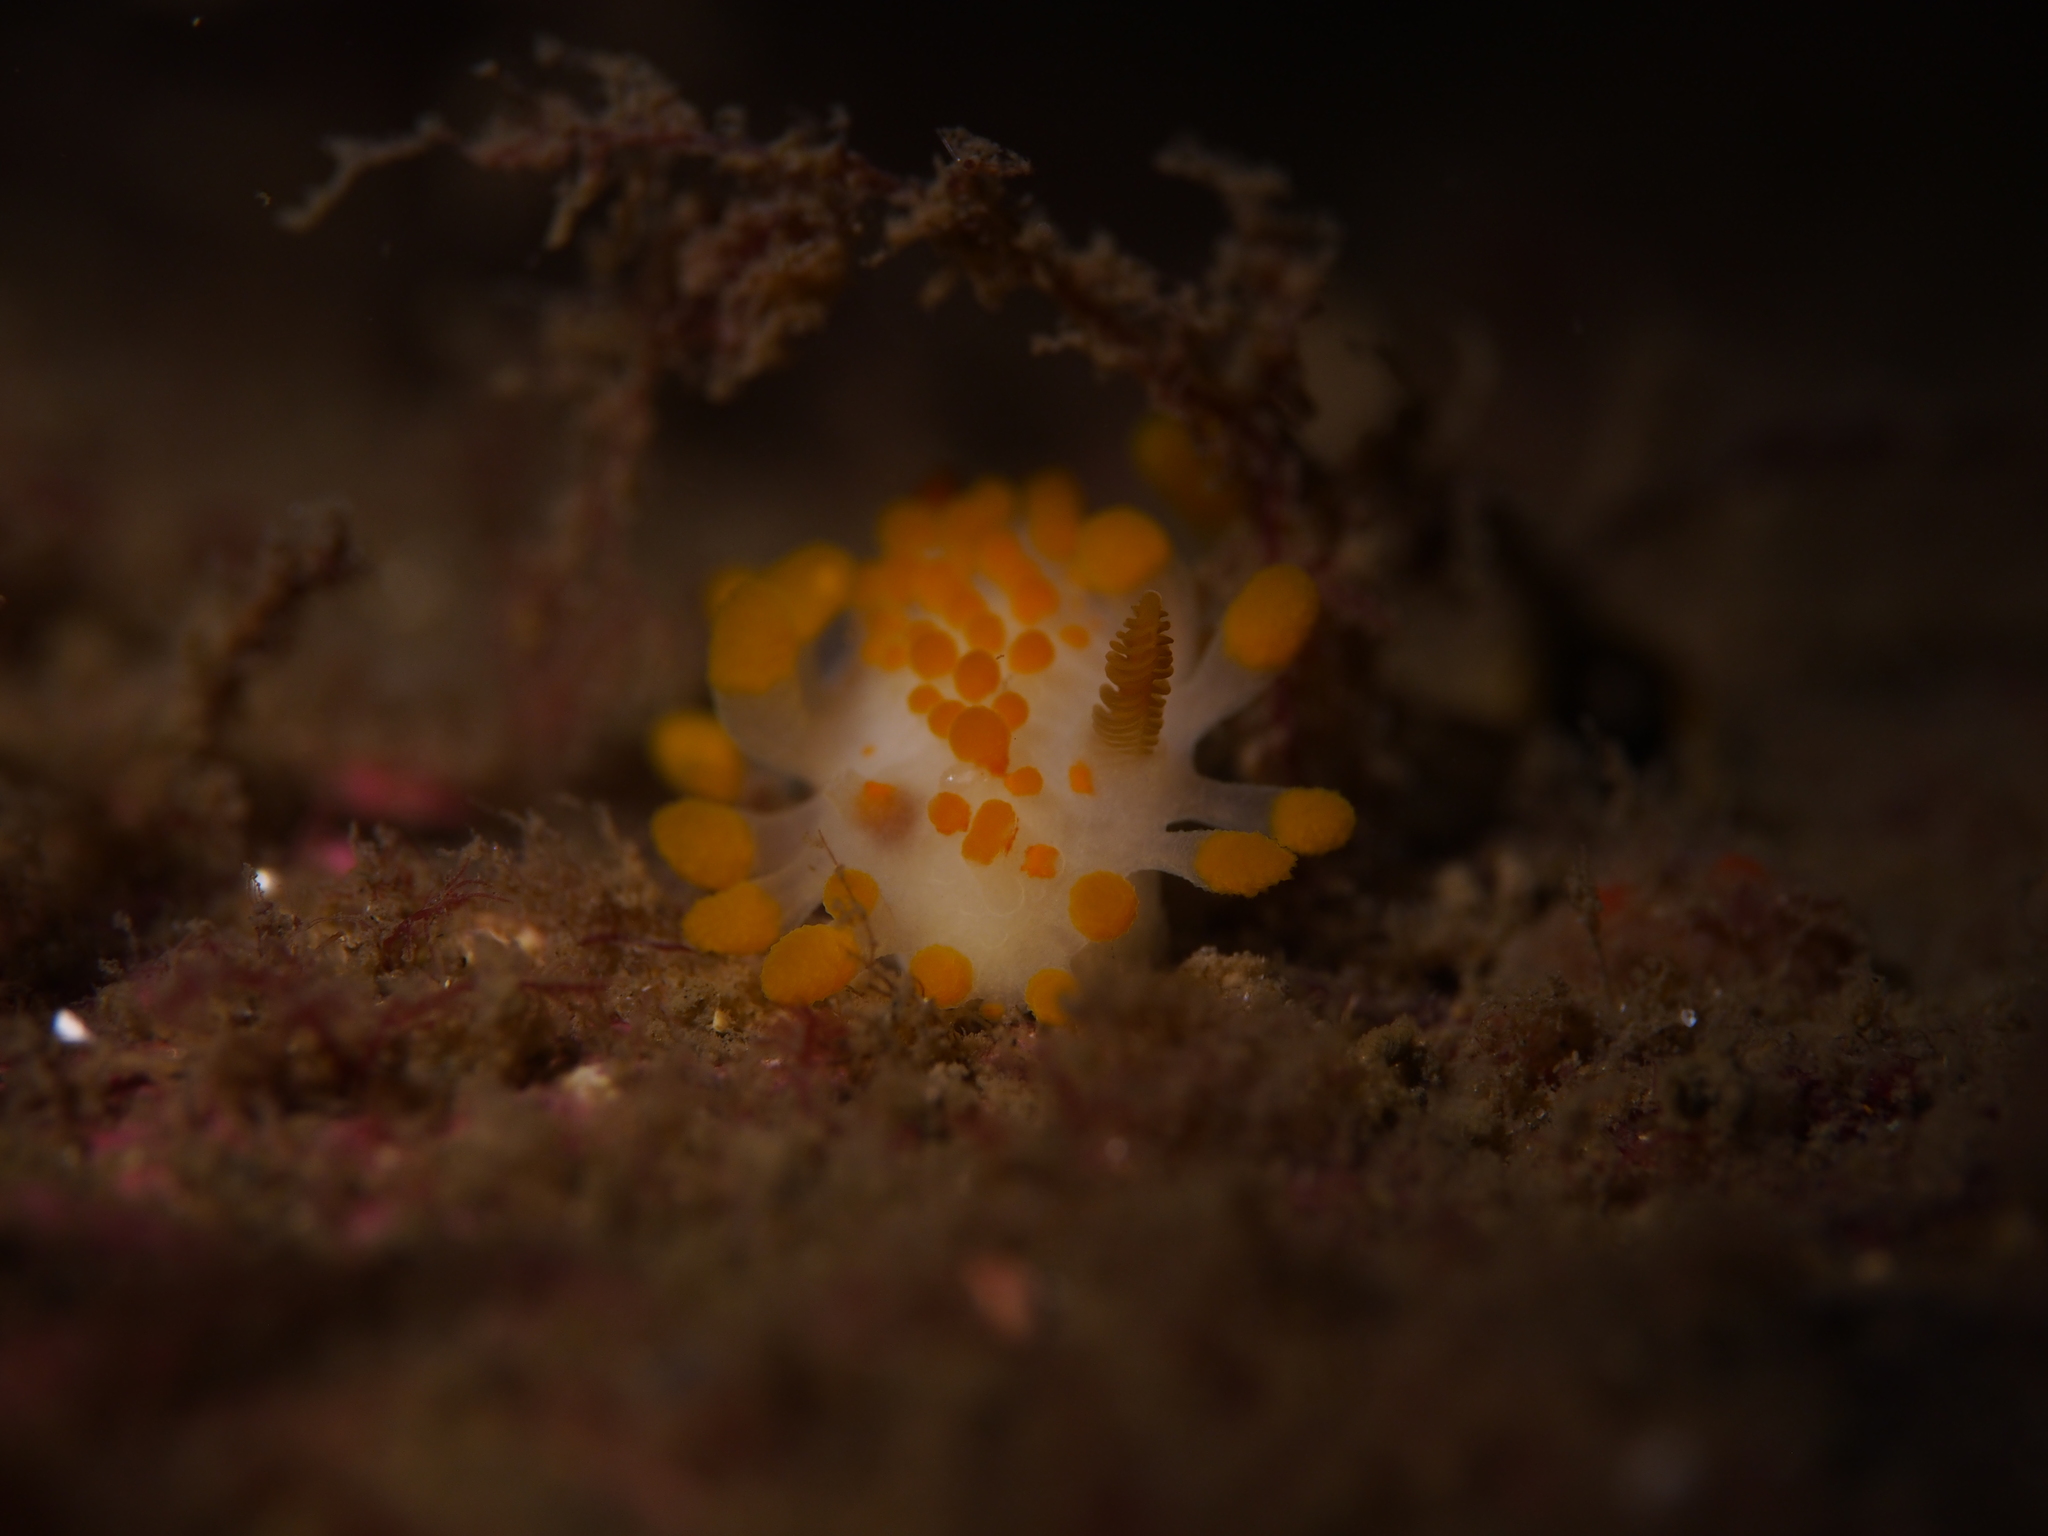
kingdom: Animalia
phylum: Mollusca
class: Gastropoda
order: Nudibranchia
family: Polyceridae
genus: Limacia
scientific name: Limacia clavigera
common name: Orange-clubbed sea slug
